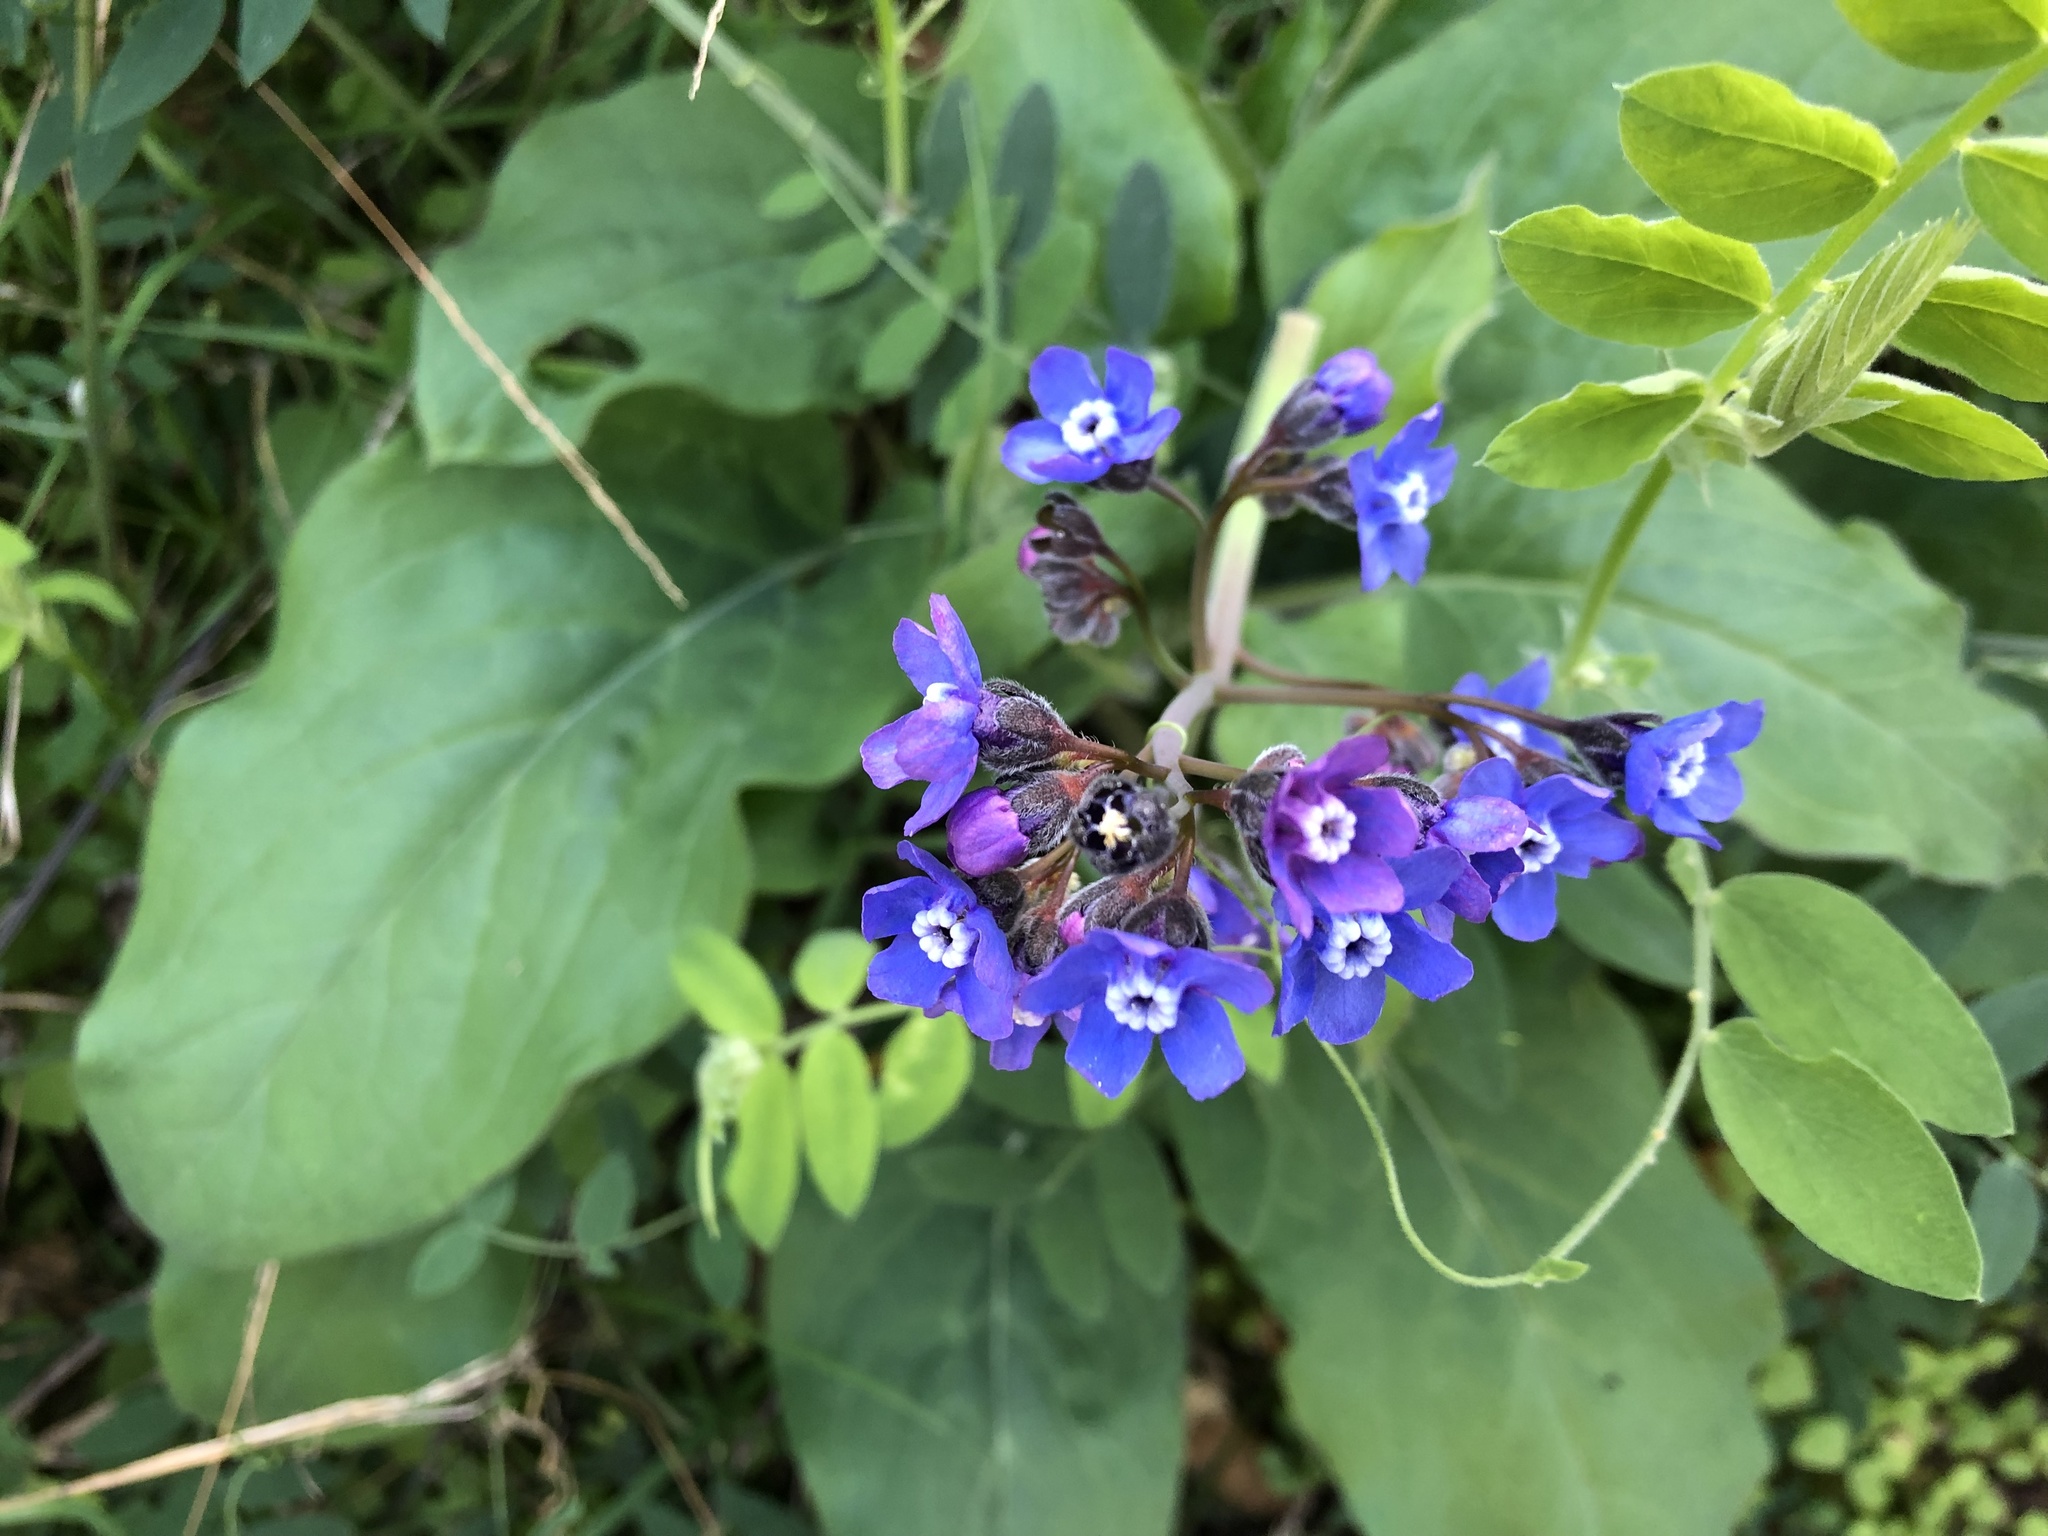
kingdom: Plantae
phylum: Tracheophyta
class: Magnoliopsida
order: Boraginales
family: Boraginaceae
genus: Adelinia
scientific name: Adelinia grande
